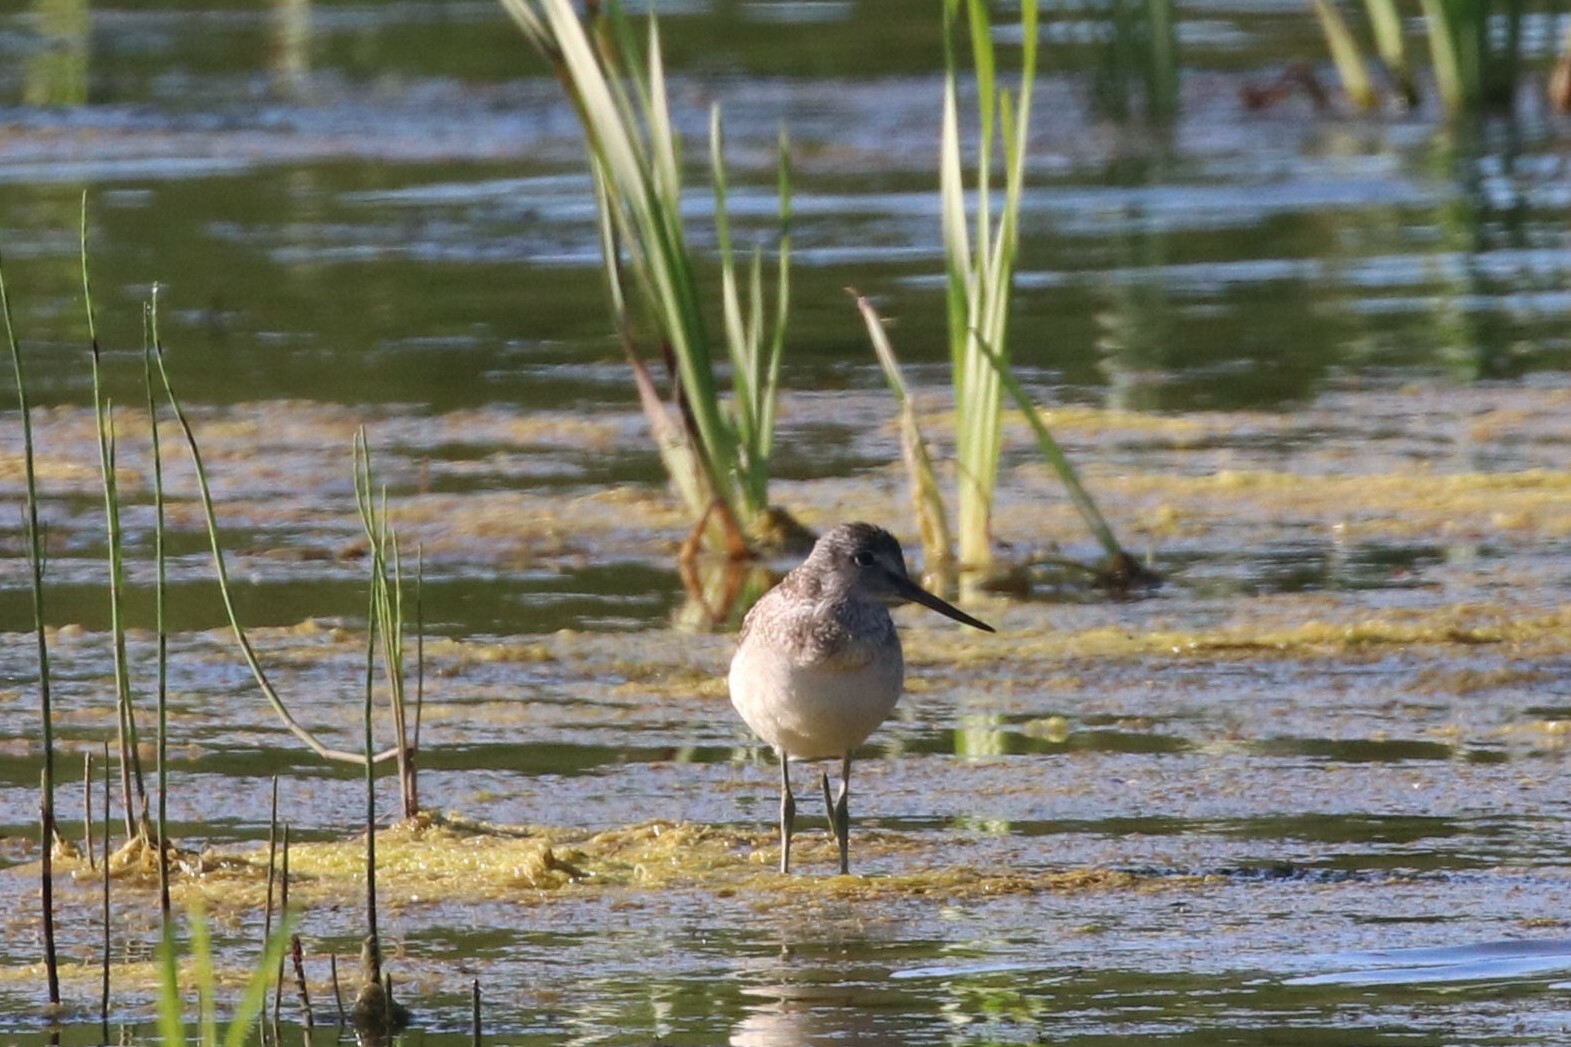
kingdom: Animalia
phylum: Chordata
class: Aves
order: Charadriiformes
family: Scolopacidae
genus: Tringa
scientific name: Tringa nebularia
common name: Common greenshank
